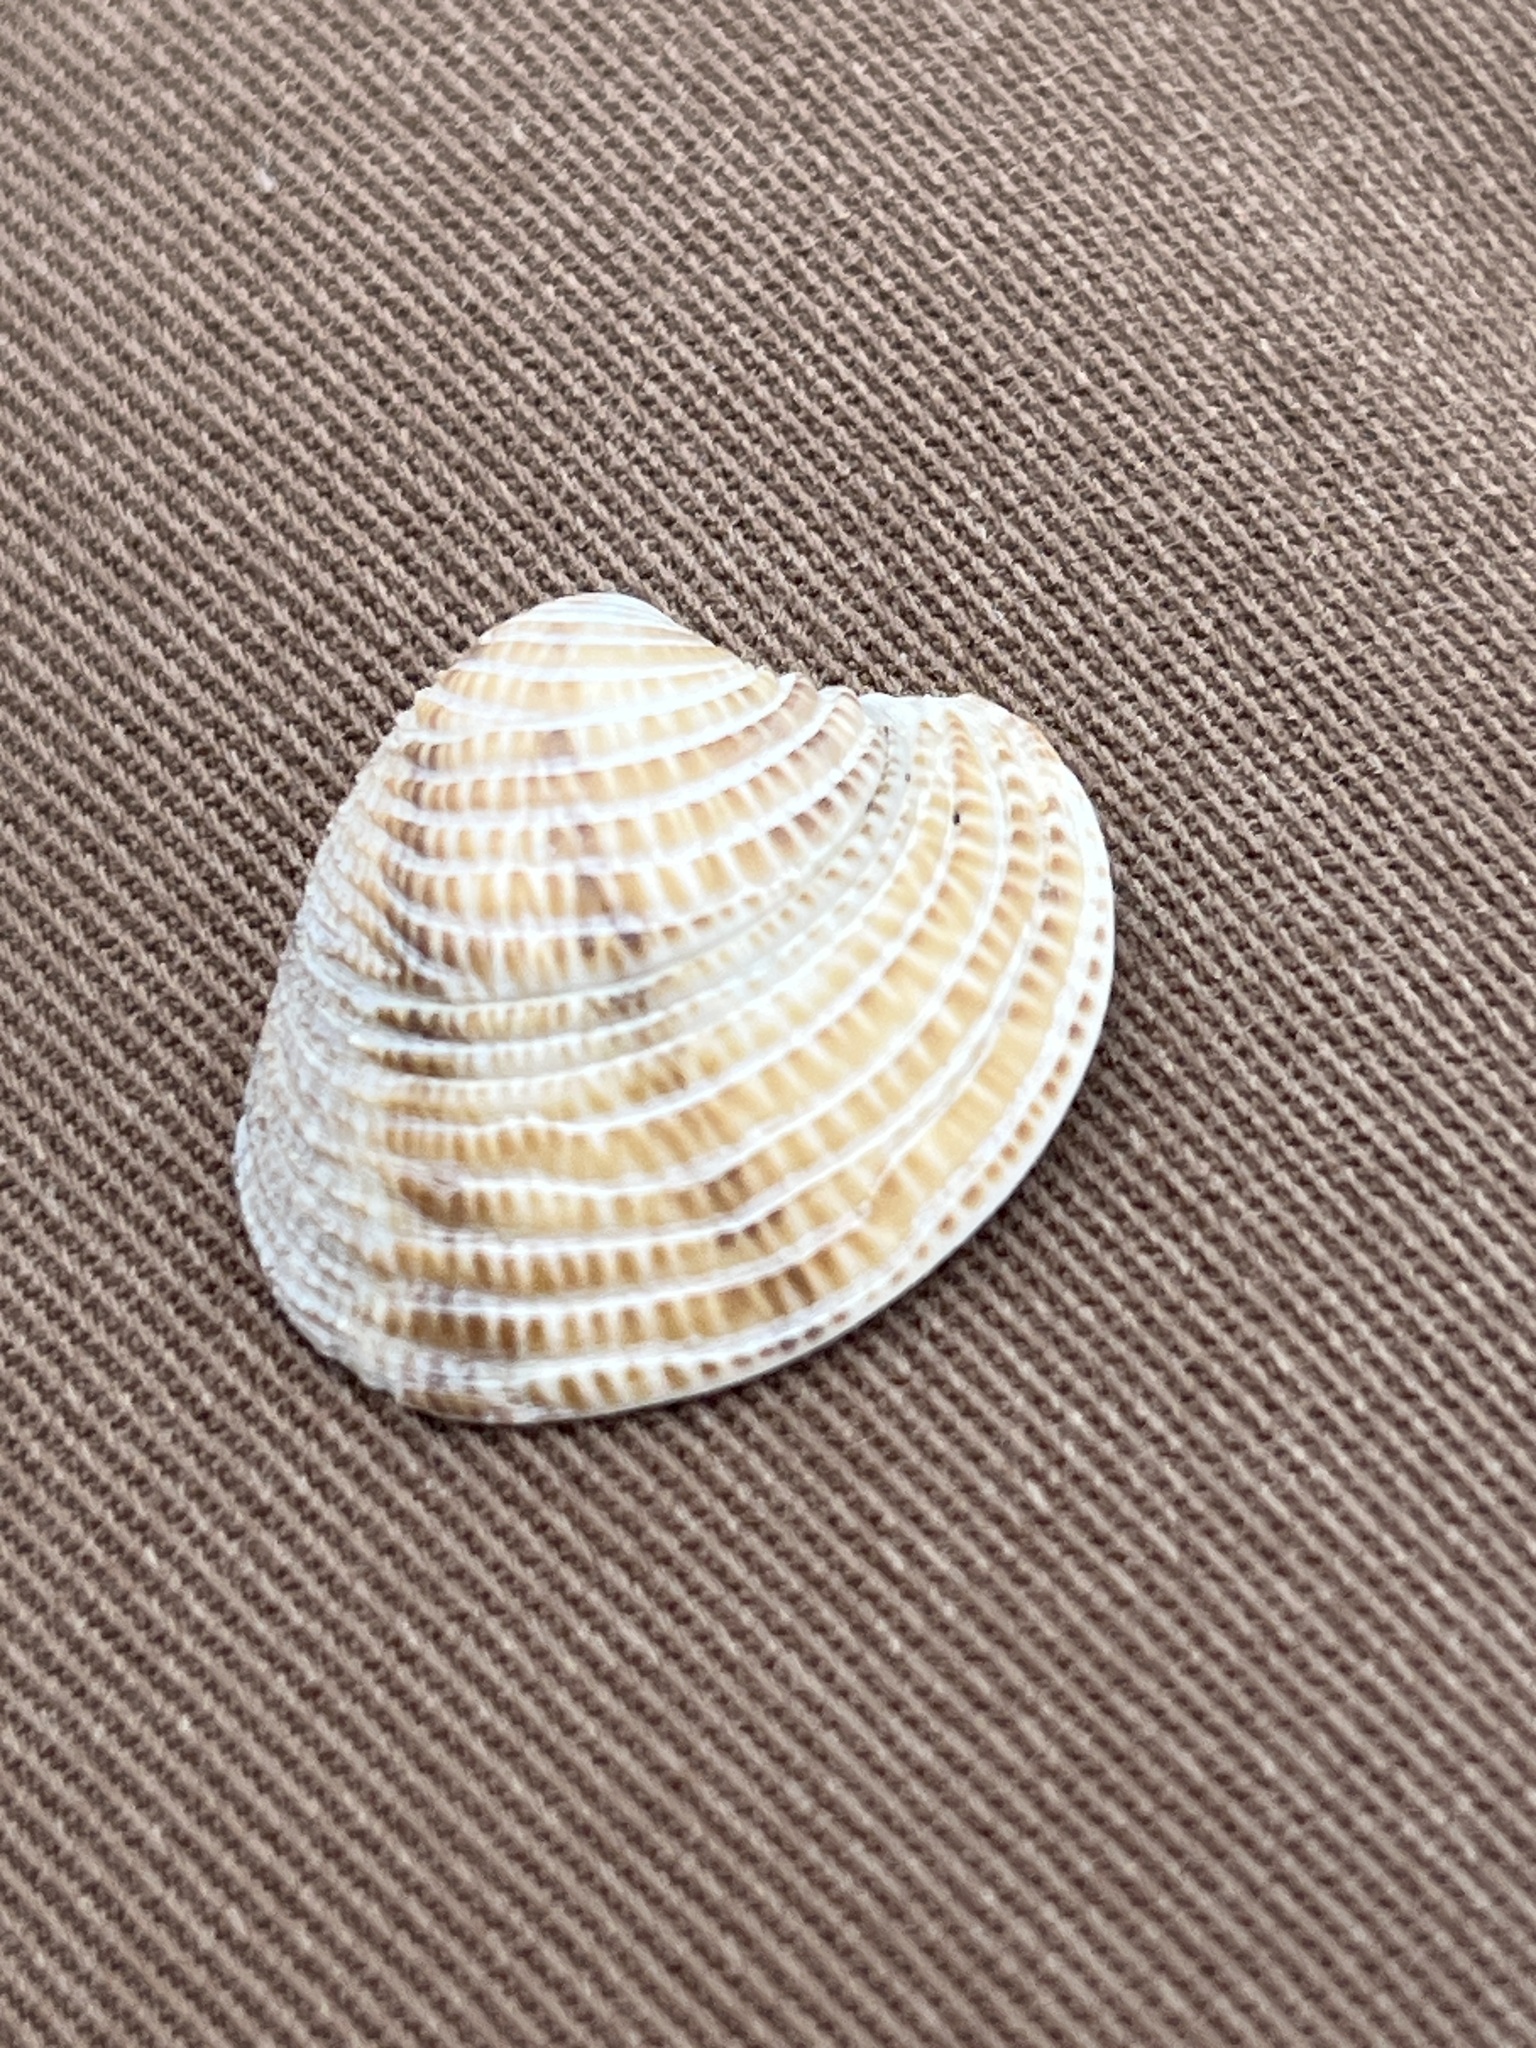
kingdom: Animalia
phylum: Mollusca
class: Bivalvia
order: Venerida
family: Veneridae
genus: Chamelea
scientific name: Chamelea gallina
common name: Chicken venus
